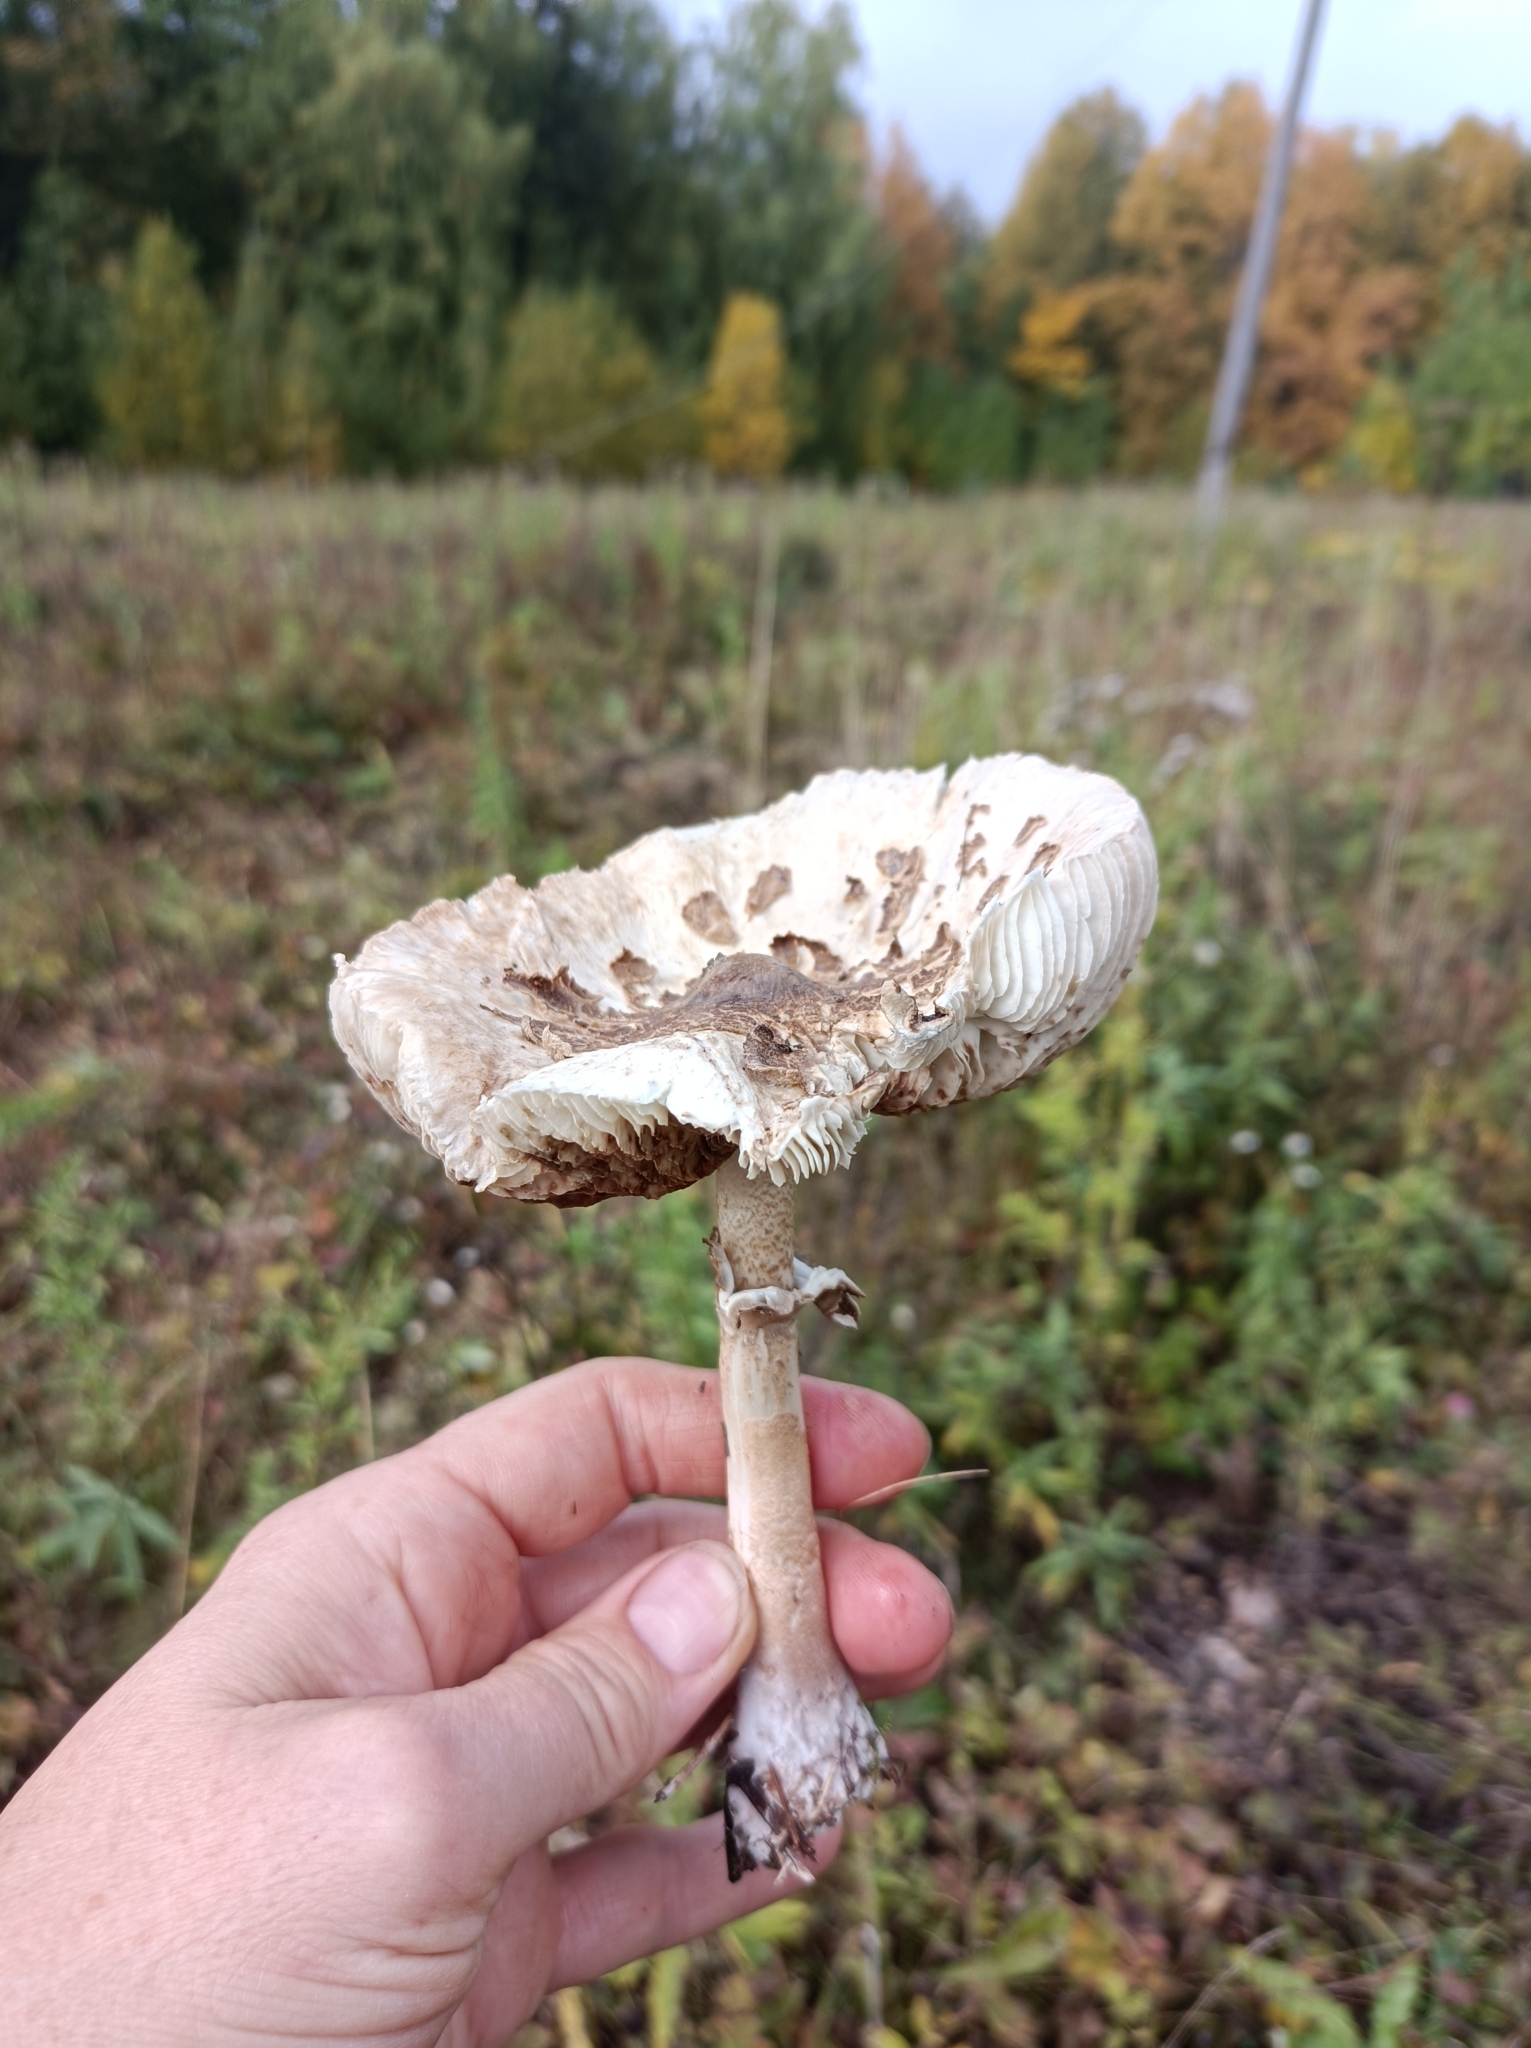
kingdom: Fungi
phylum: Basidiomycota
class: Agaricomycetes
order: Agaricales
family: Agaricaceae
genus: Macrolepiota
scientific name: Macrolepiota procera
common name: Parasol
